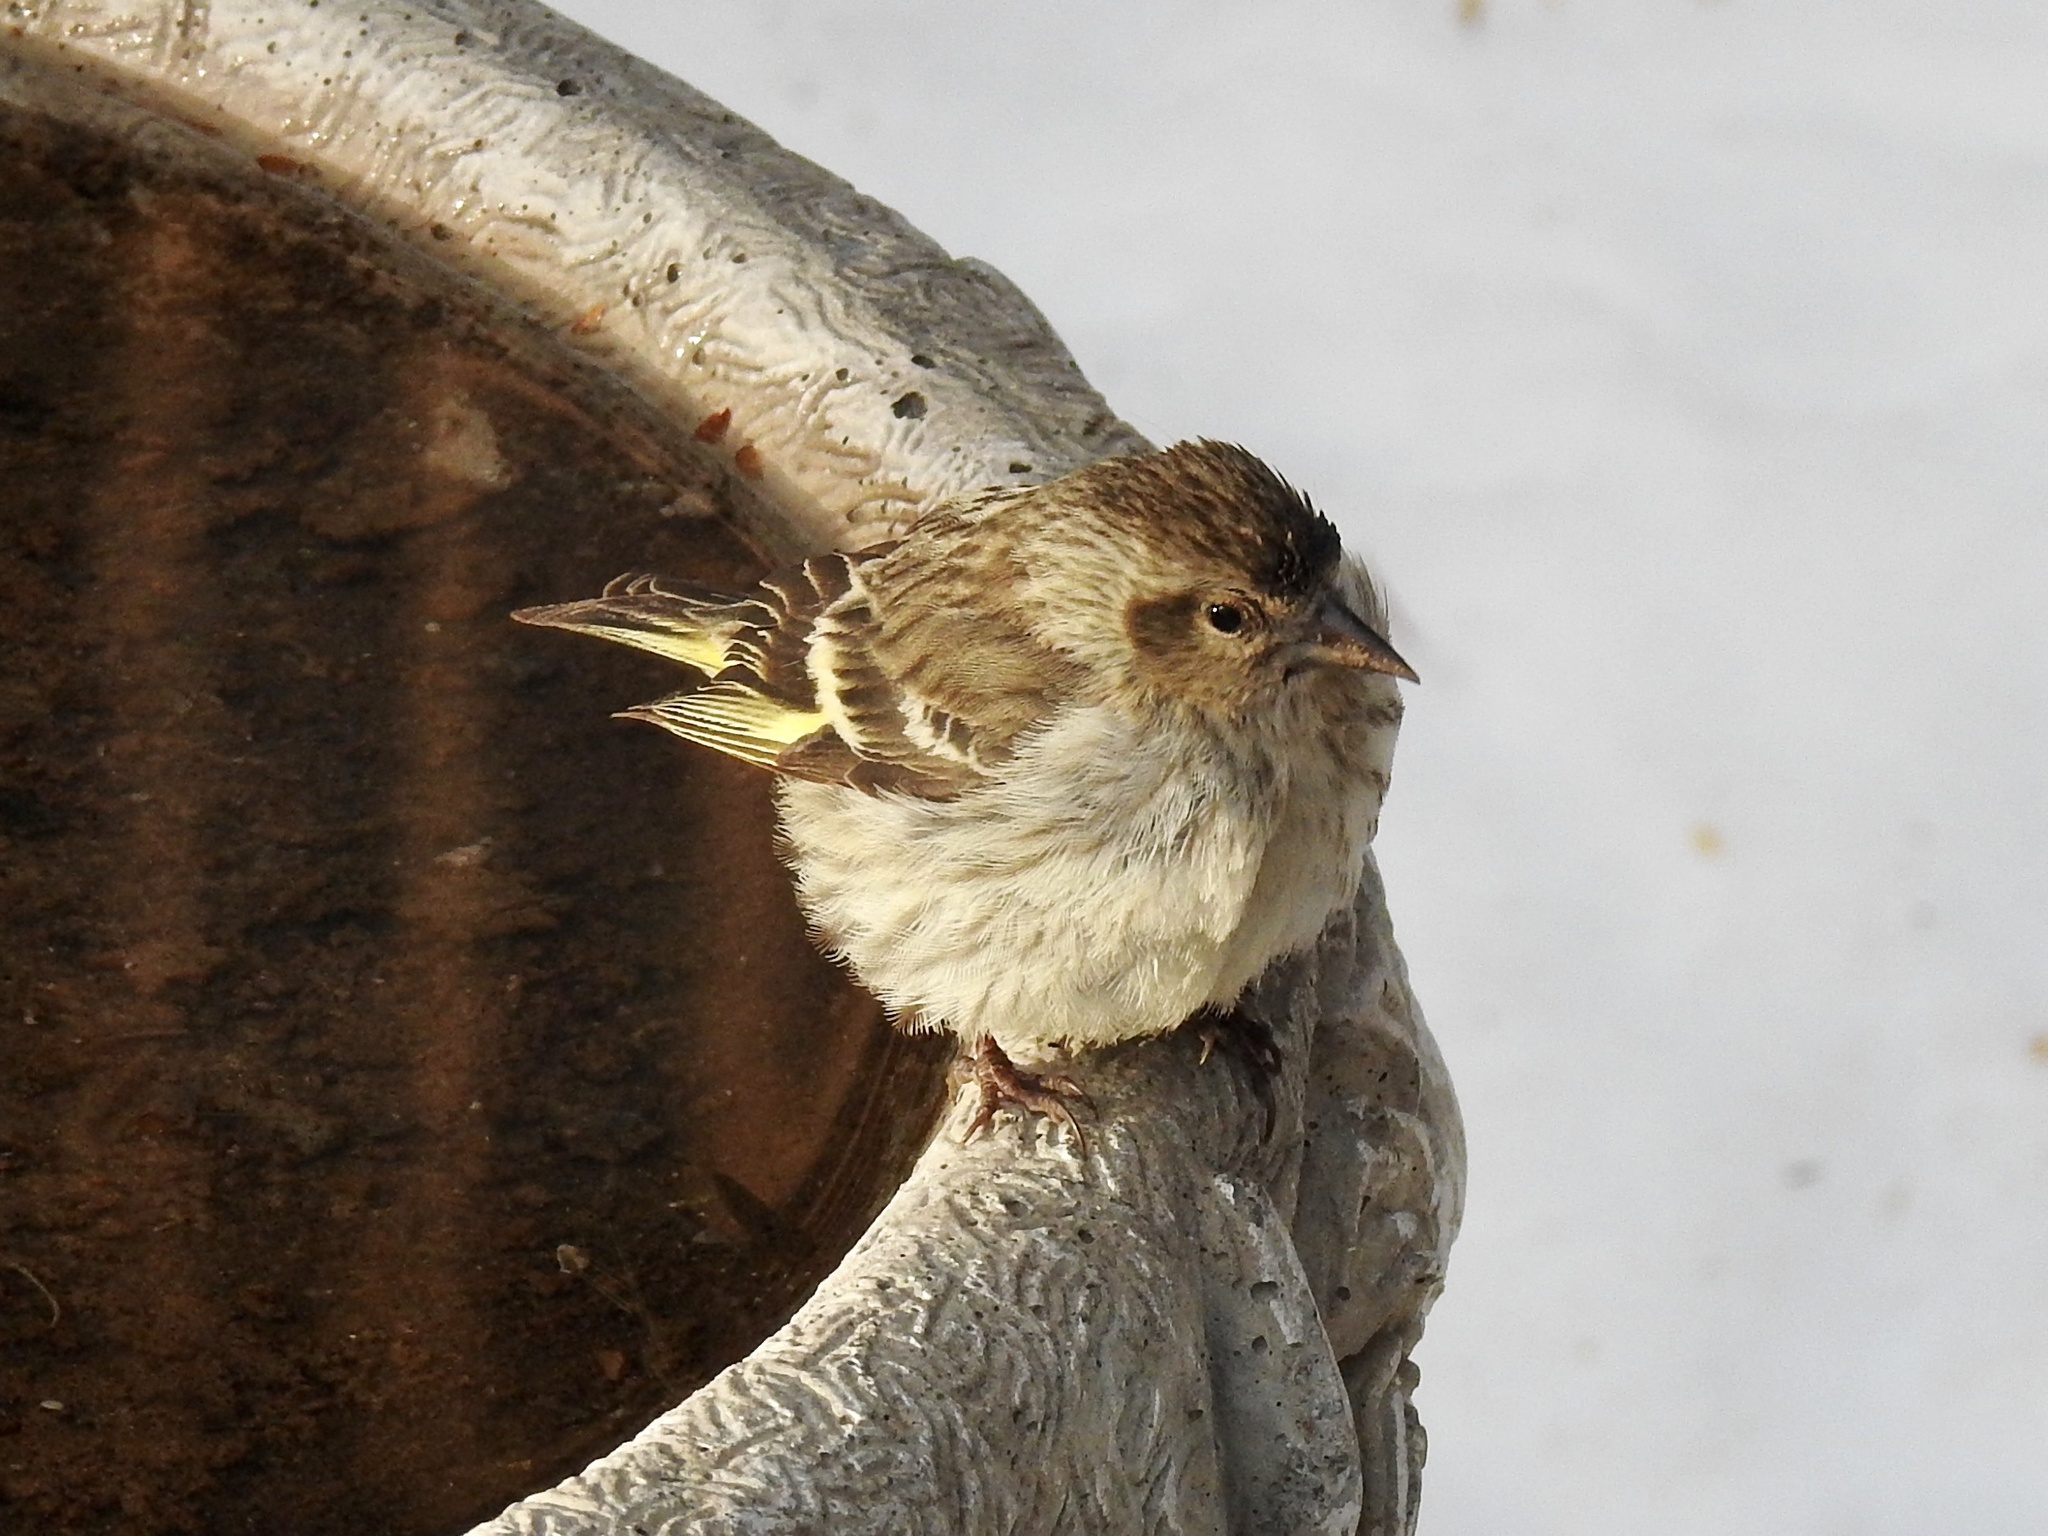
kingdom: Animalia
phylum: Chordata
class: Aves
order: Passeriformes
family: Fringillidae
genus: Spinus
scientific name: Spinus pinus
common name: Pine siskin
